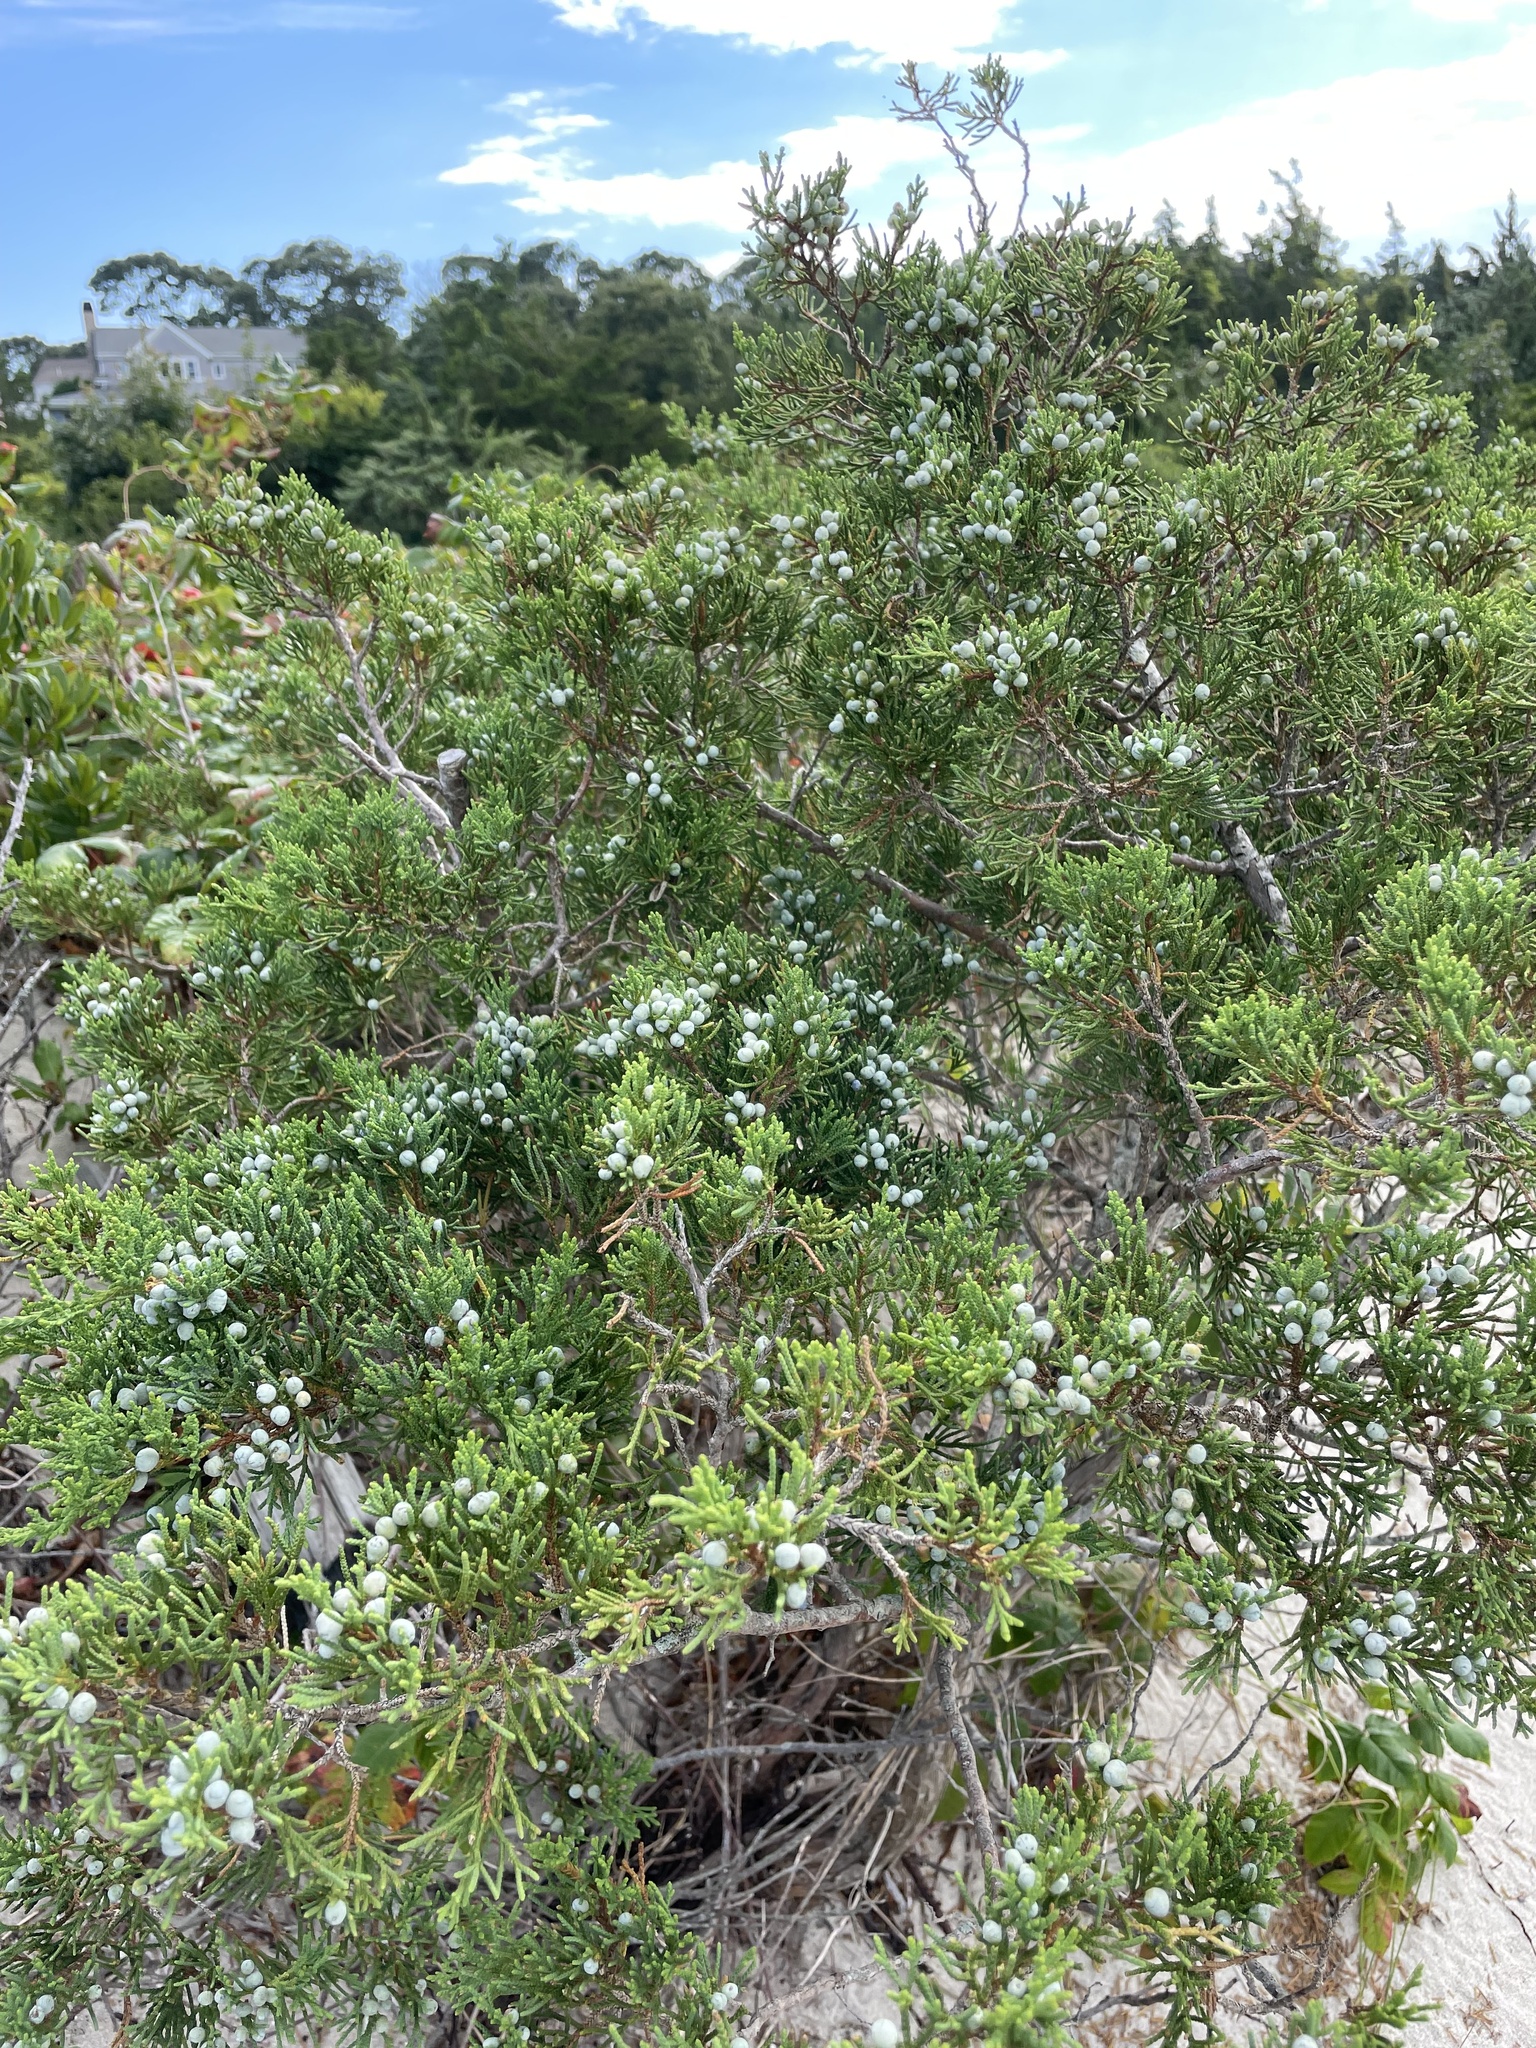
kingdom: Plantae
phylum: Tracheophyta
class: Pinopsida
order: Pinales
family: Cupressaceae
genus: Juniperus
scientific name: Juniperus virginiana
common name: Red juniper
